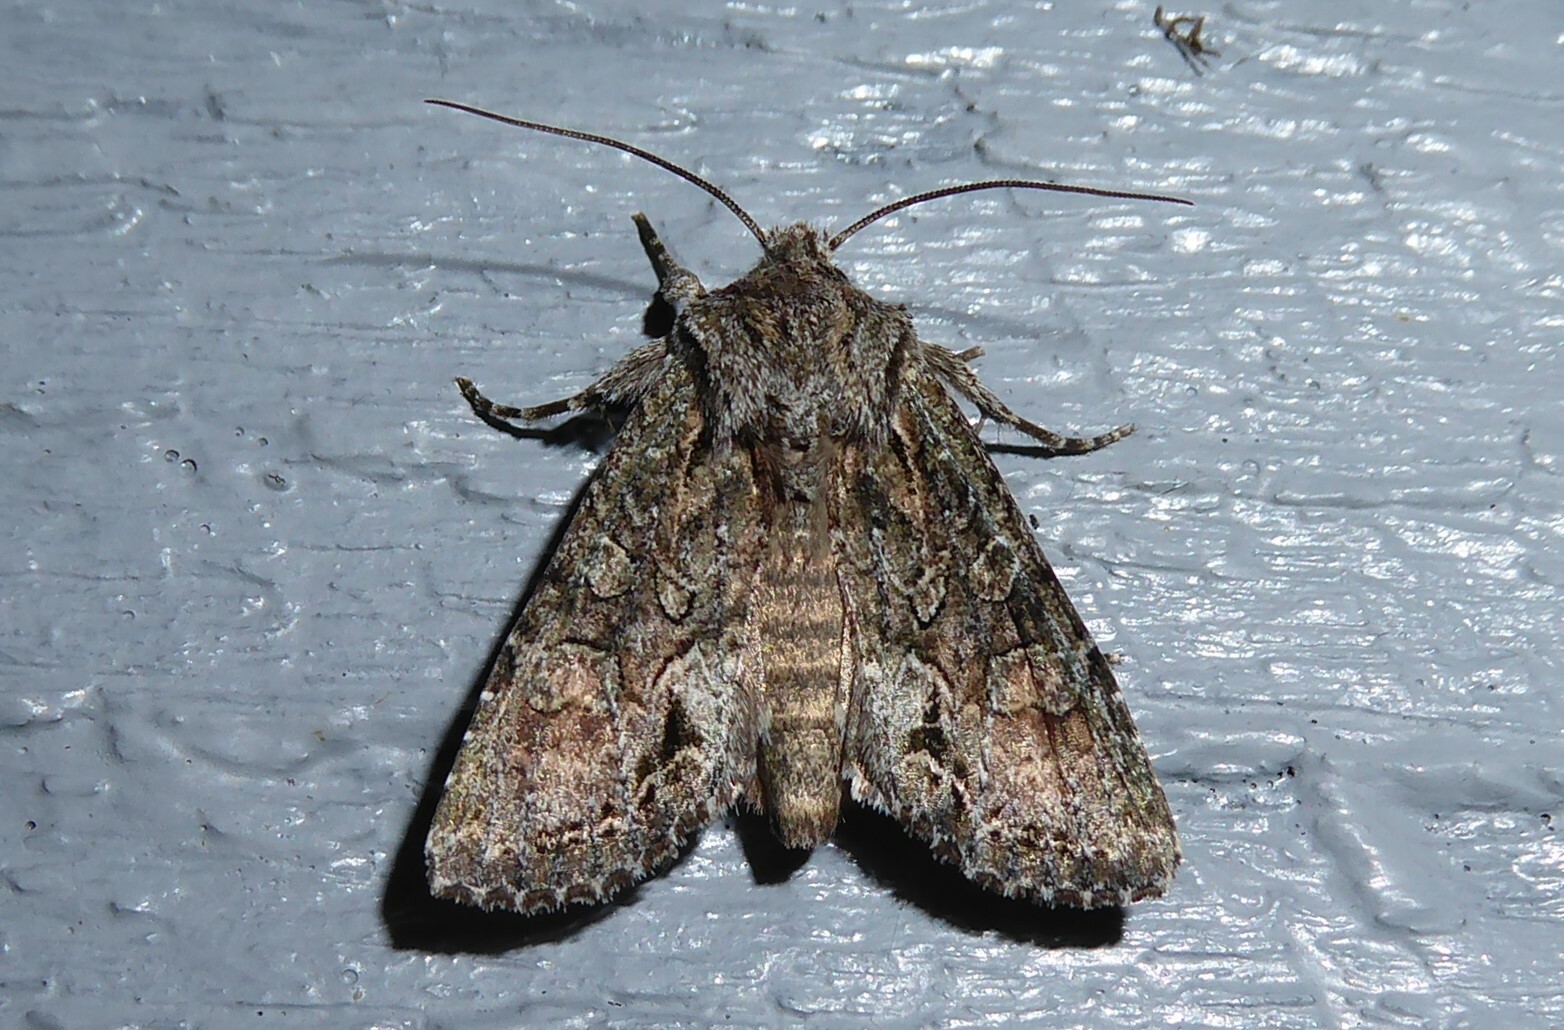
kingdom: Animalia
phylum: Arthropoda
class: Insecta
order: Lepidoptera
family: Noctuidae
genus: Ichneutica
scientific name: Ichneutica mutans
